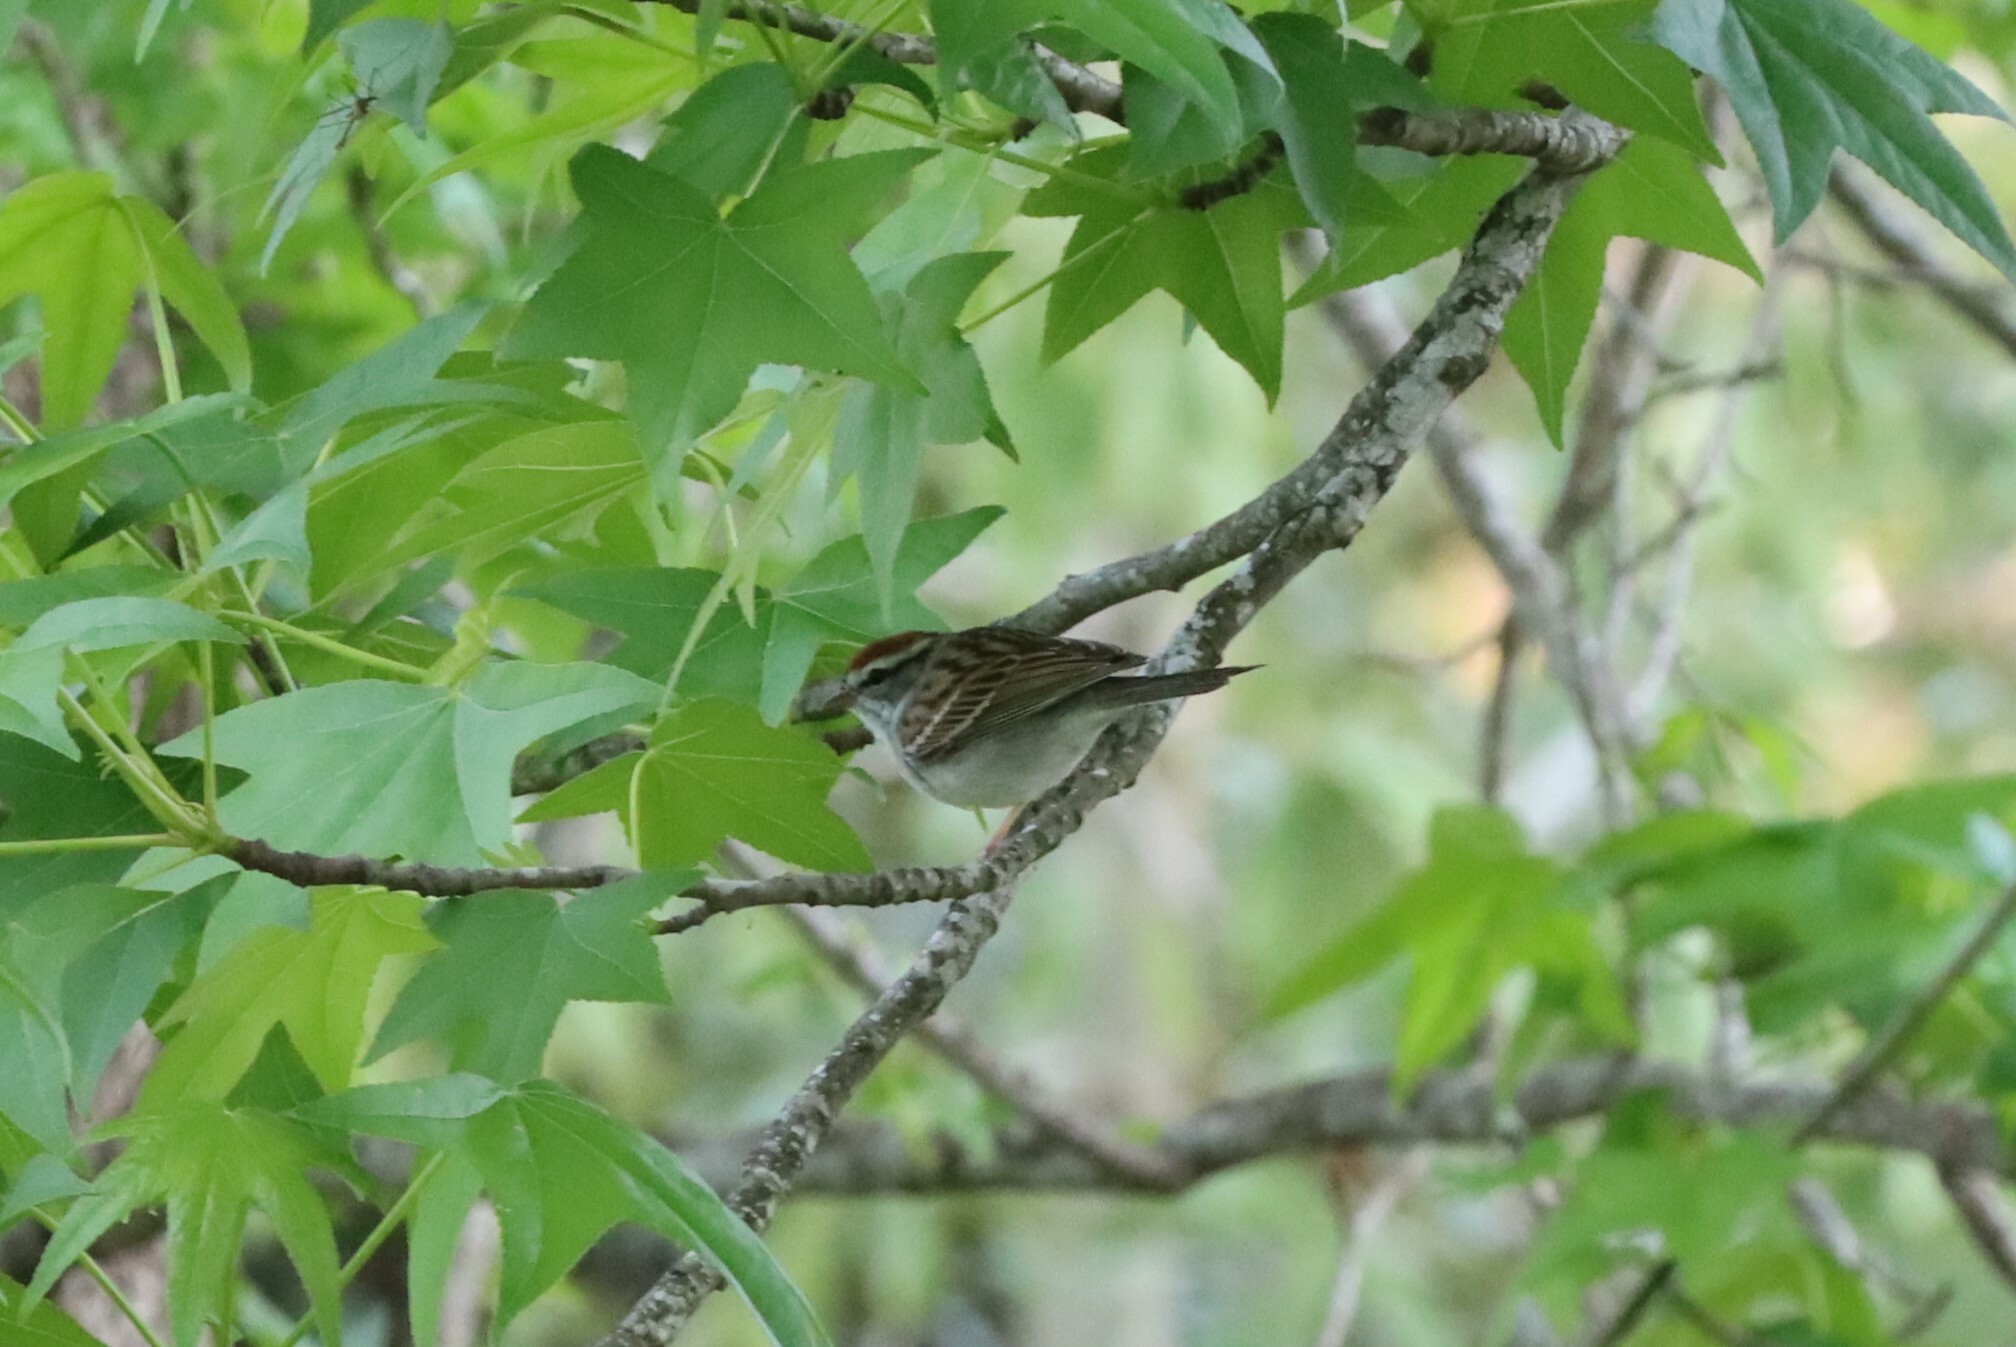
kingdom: Animalia
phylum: Chordata
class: Aves
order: Passeriformes
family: Passerellidae
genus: Spizella
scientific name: Spizella passerina
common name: Chipping sparrow
